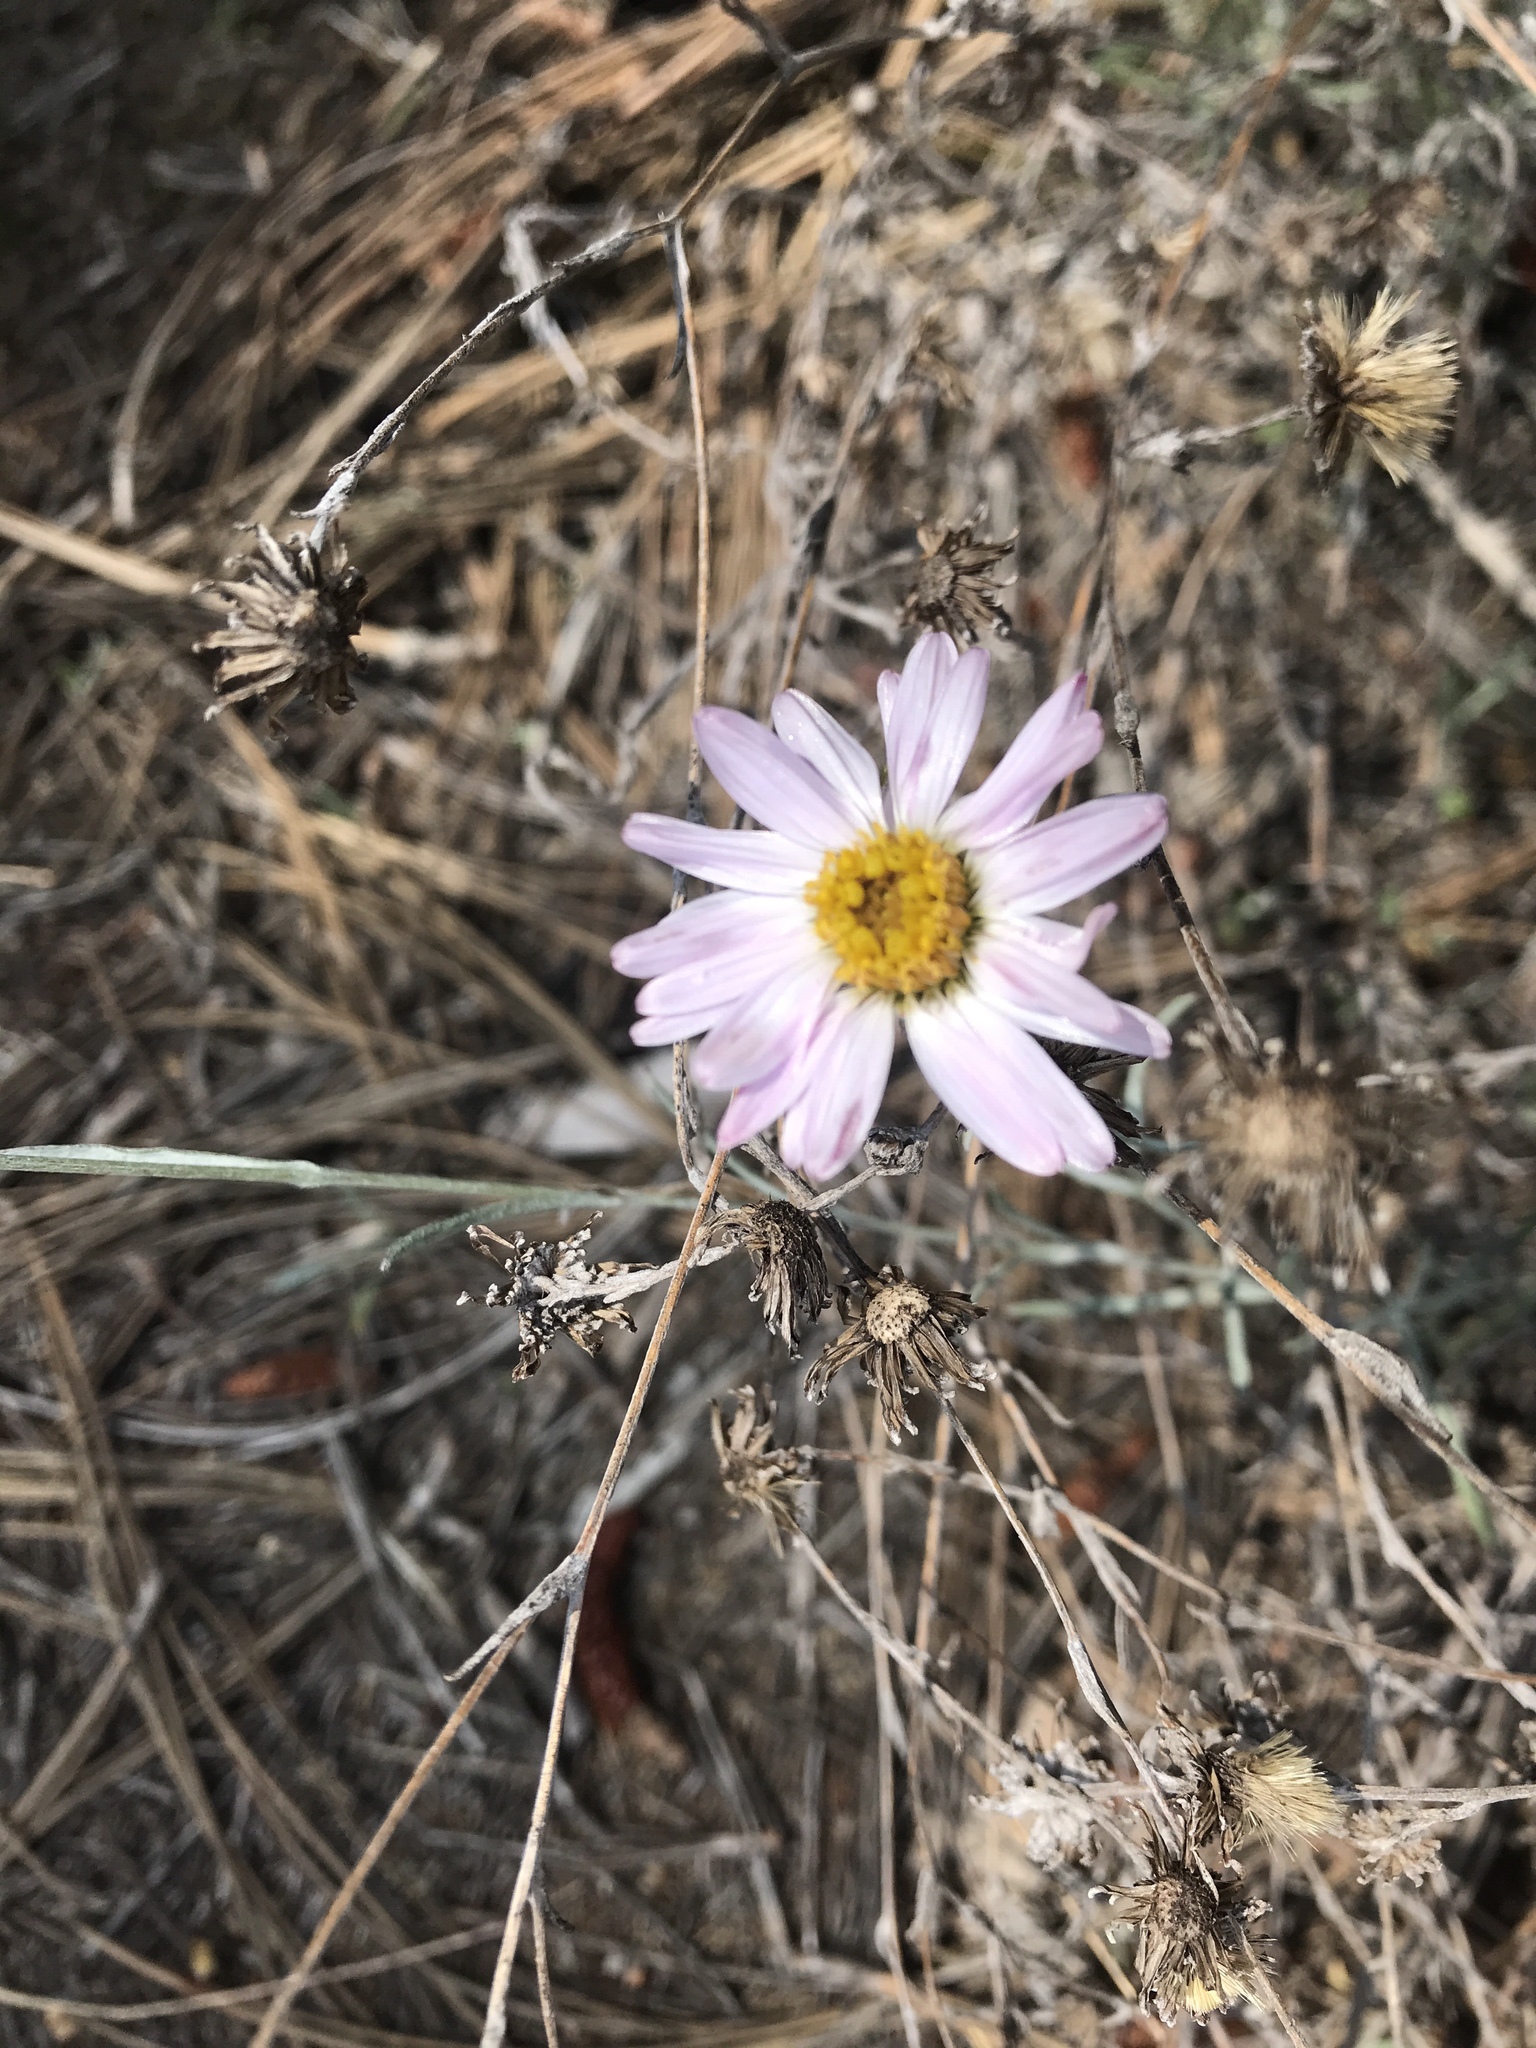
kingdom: Plantae
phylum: Tracheophyta
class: Magnoliopsida
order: Asterales
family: Asteraceae
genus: Corethrogyne
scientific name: Corethrogyne filaginifolia
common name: Sand-aster
